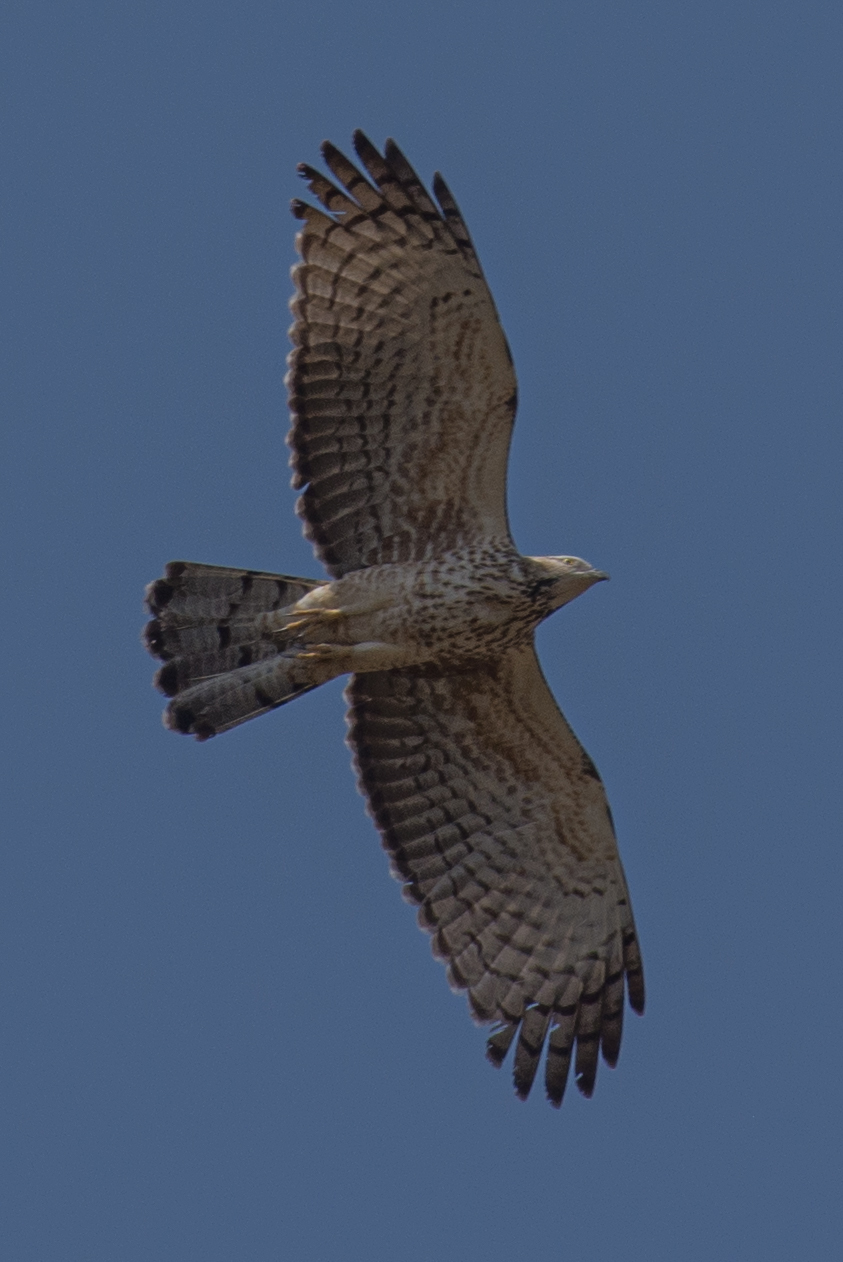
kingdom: Animalia
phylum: Chordata
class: Aves
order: Accipitriformes
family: Accipitridae
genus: Pernis
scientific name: Pernis ptilorhynchus
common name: Crested honey buzzard
